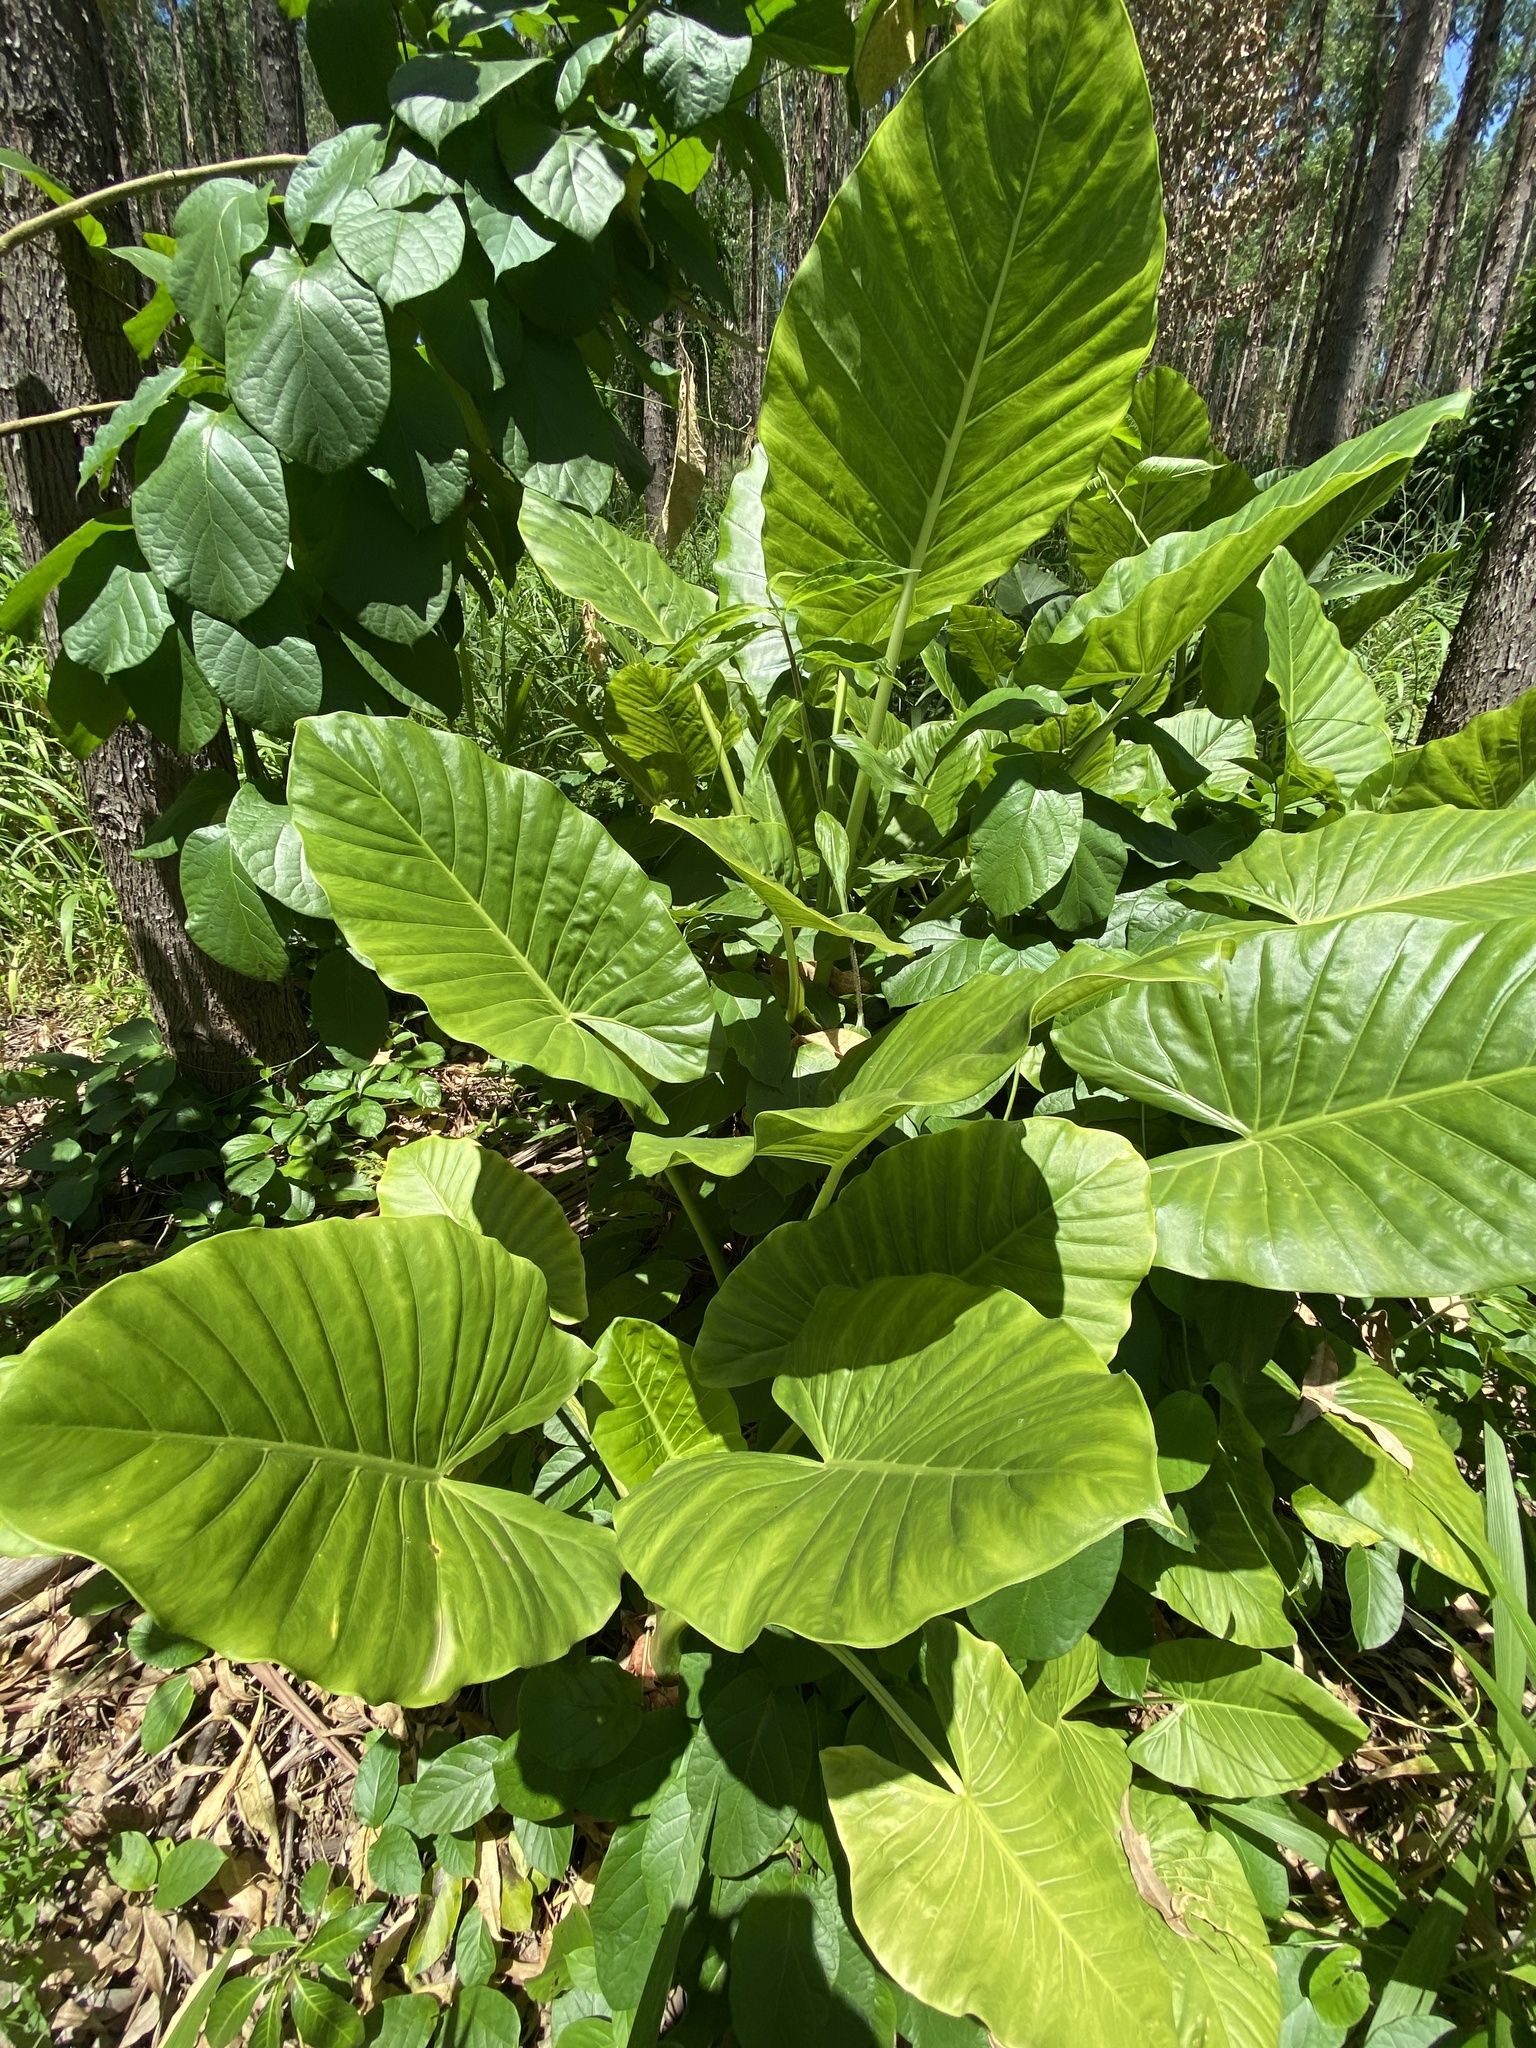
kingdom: Plantae
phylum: Tracheophyta
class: Liliopsida
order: Alismatales
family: Araceae
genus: Alocasia
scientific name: Alocasia macrorrhizos
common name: Giant taro
